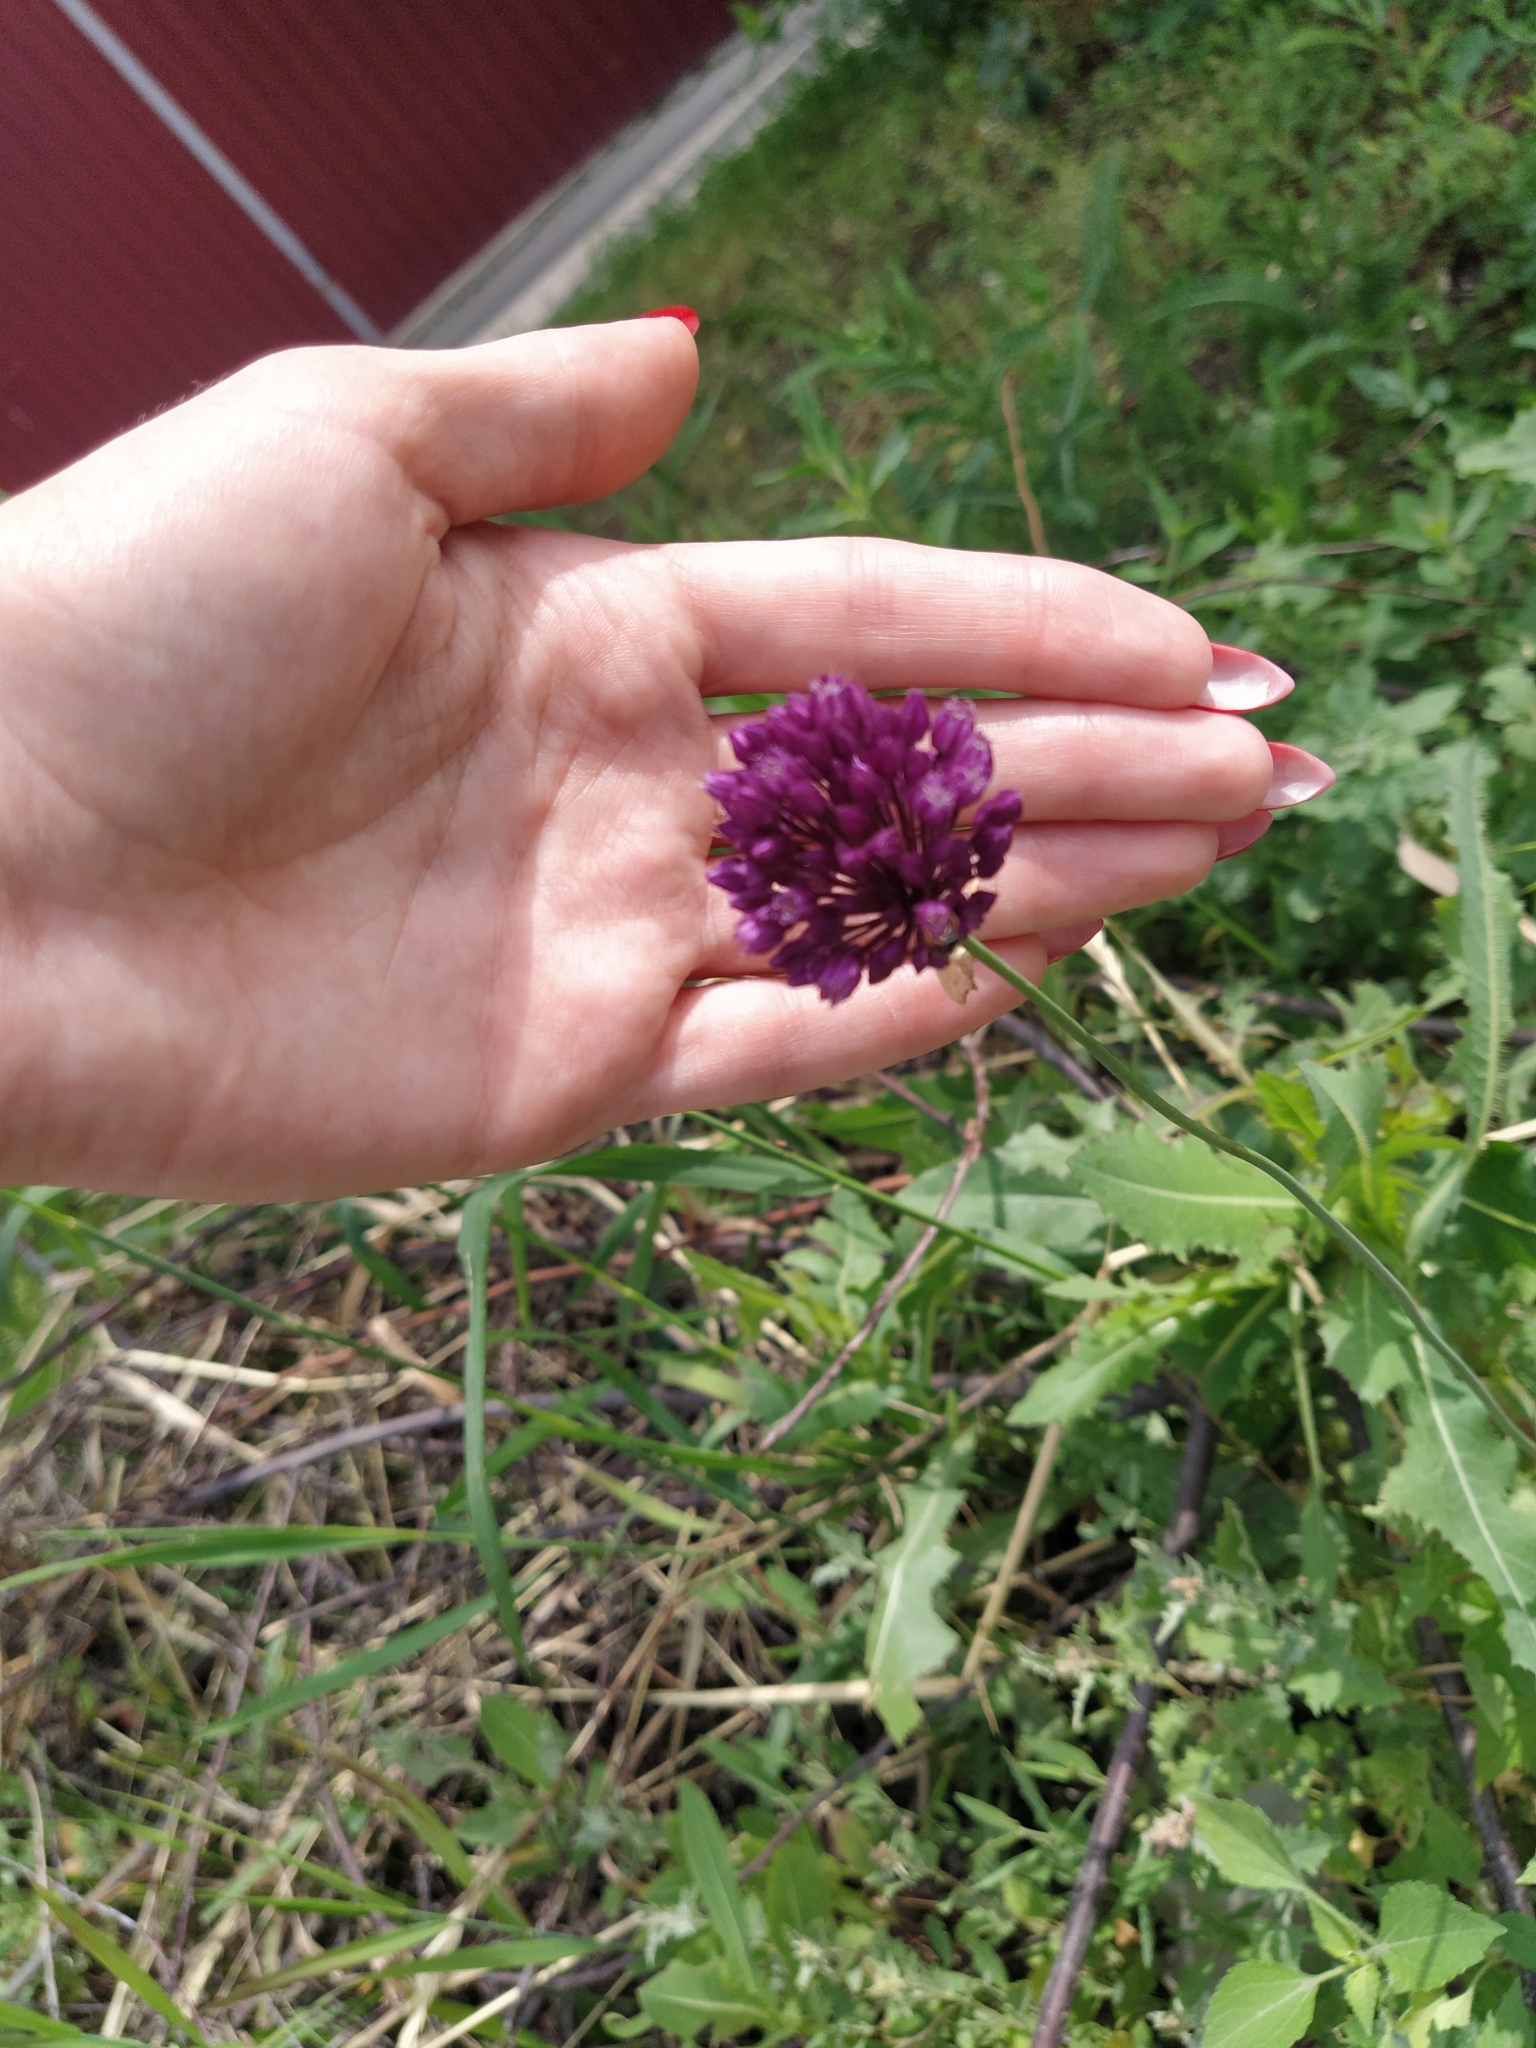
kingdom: Plantae
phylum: Tracheophyta
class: Liliopsida
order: Asparagales
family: Amaryllidaceae
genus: Allium
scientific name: Allium rotundum
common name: Sand leek
